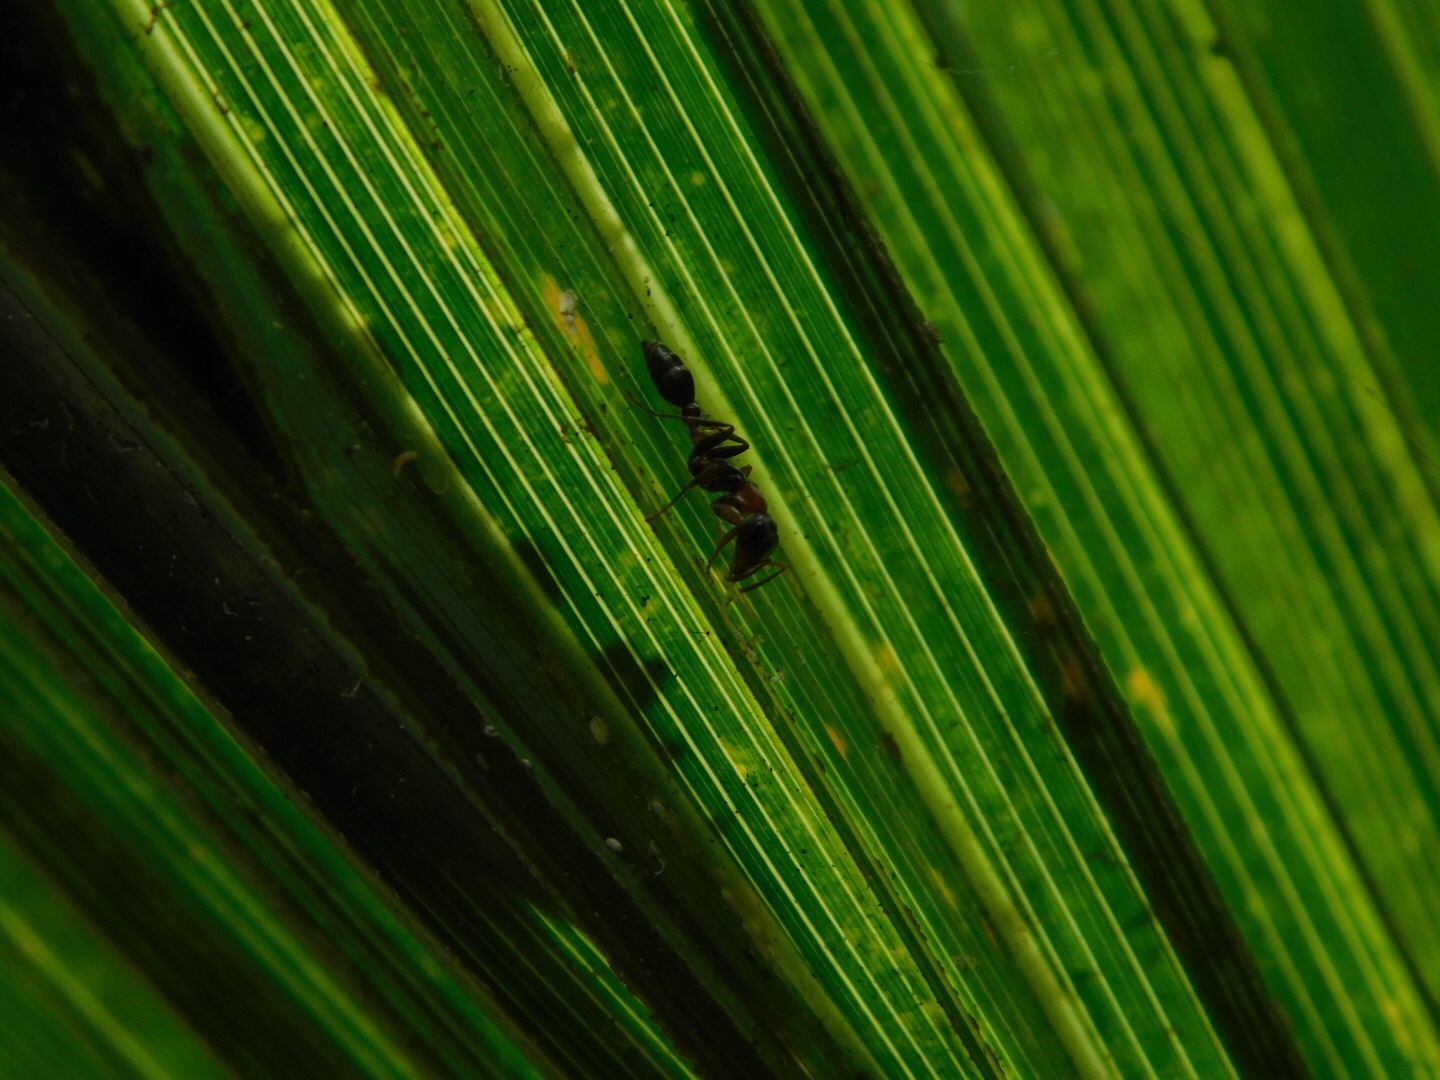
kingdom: Animalia
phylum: Arthropoda
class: Insecta
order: Hymenoptera
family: Formicidae
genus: Pseudomyrmex
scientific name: Pseudomyrmex gracilis
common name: Graceful twig ant
